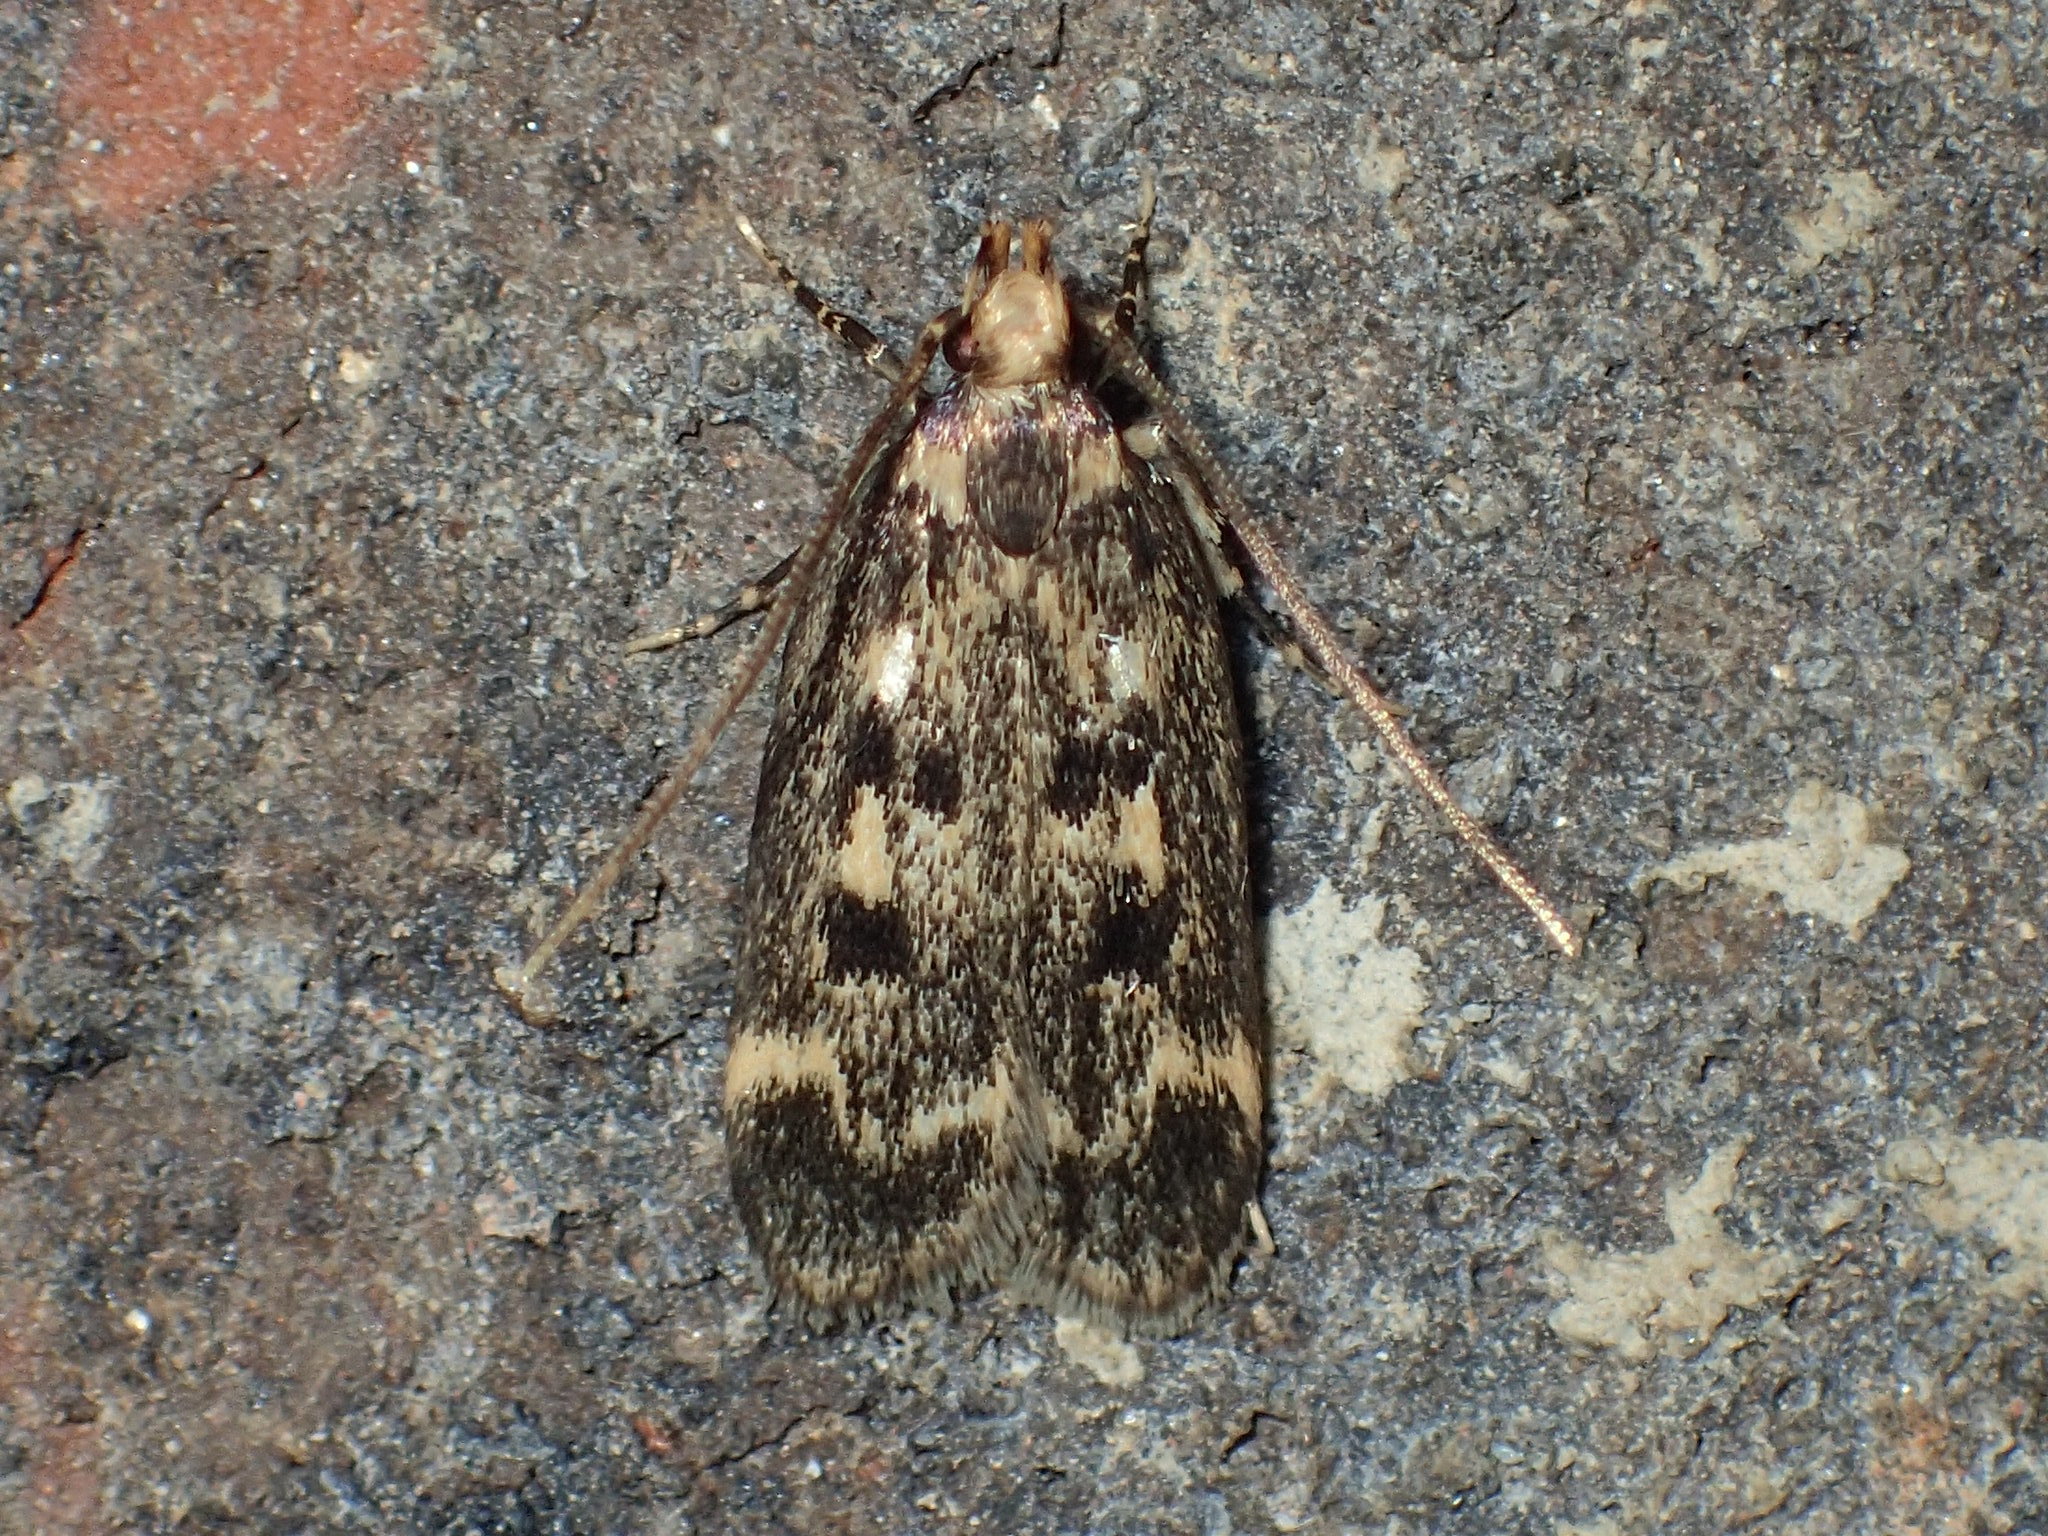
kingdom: Animalia
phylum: Arthropoda
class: Insecta
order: Lepidoptera
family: Lecithoceridae
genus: Martyringa
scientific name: Martyringa latipennis
